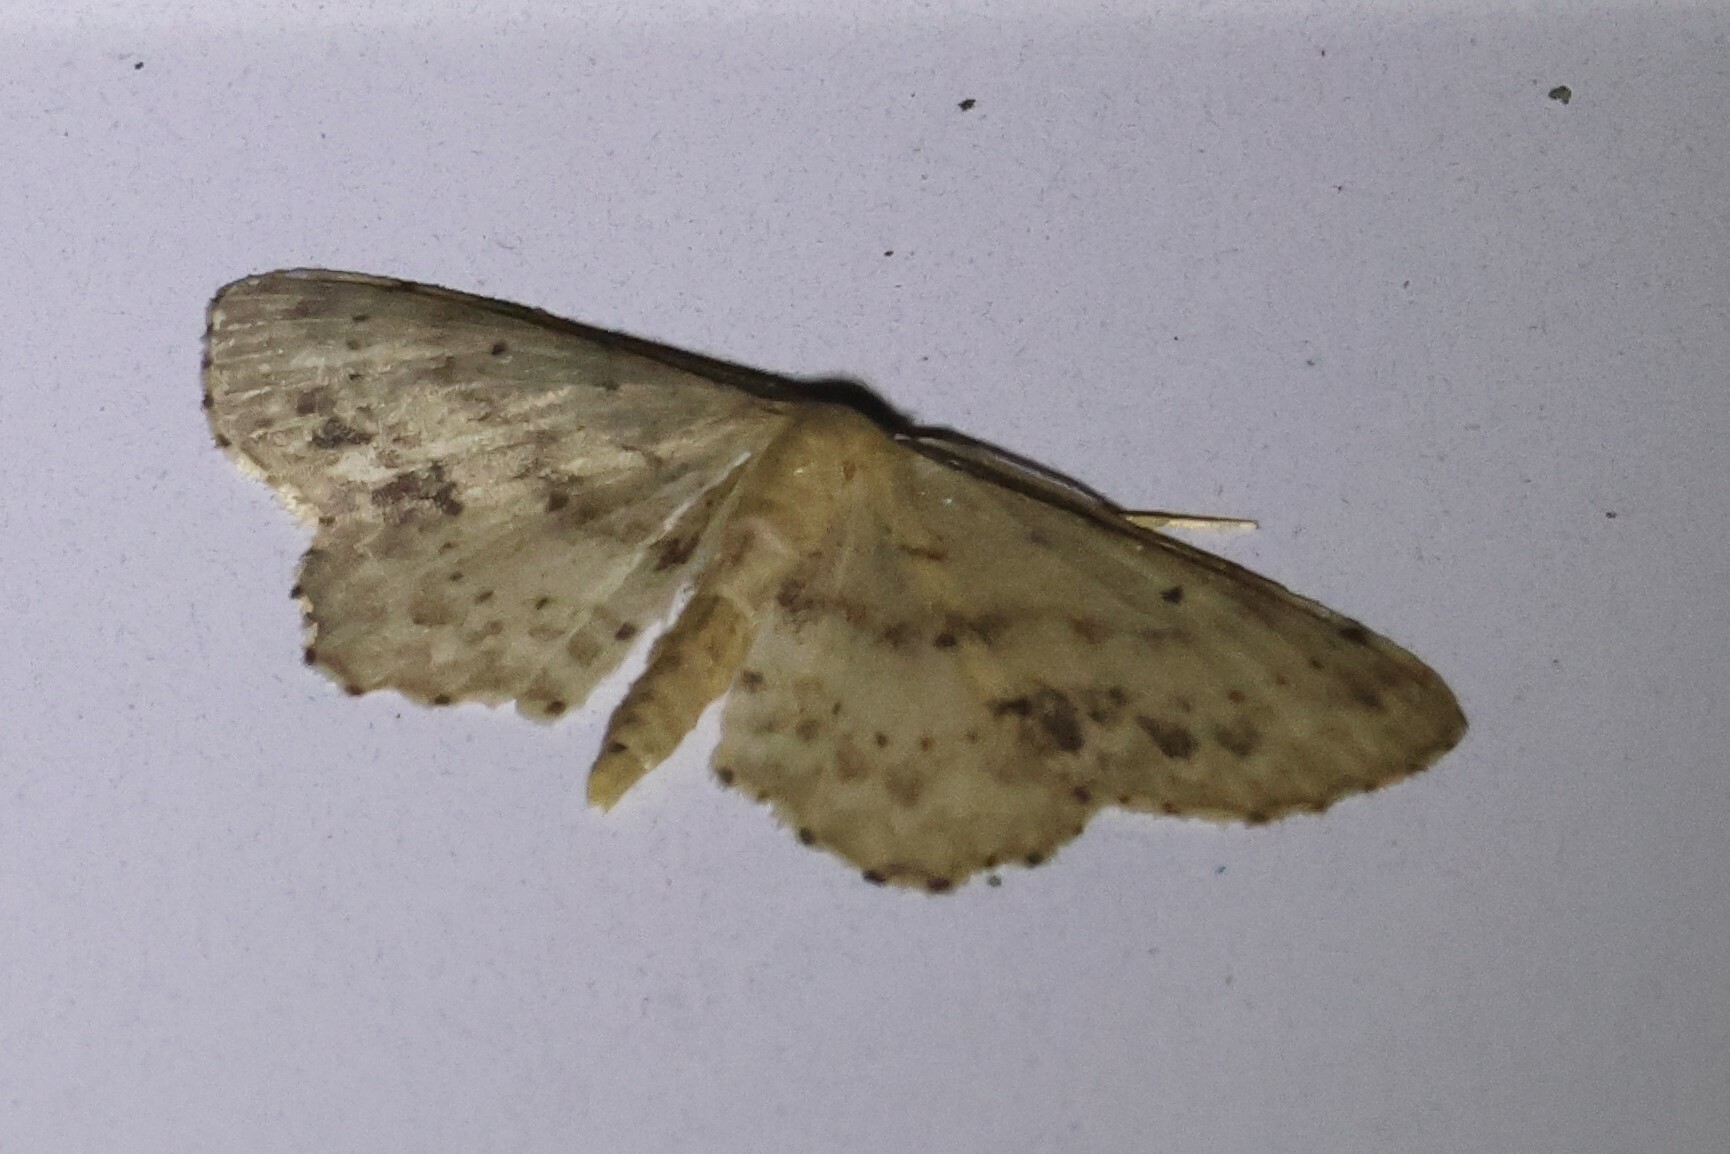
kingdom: Animalia
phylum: Arthropoda
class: Insecta
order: Lepidoptera
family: Geometridae
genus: Idaea
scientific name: Idaea dimidiata
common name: Single-dotted wave
